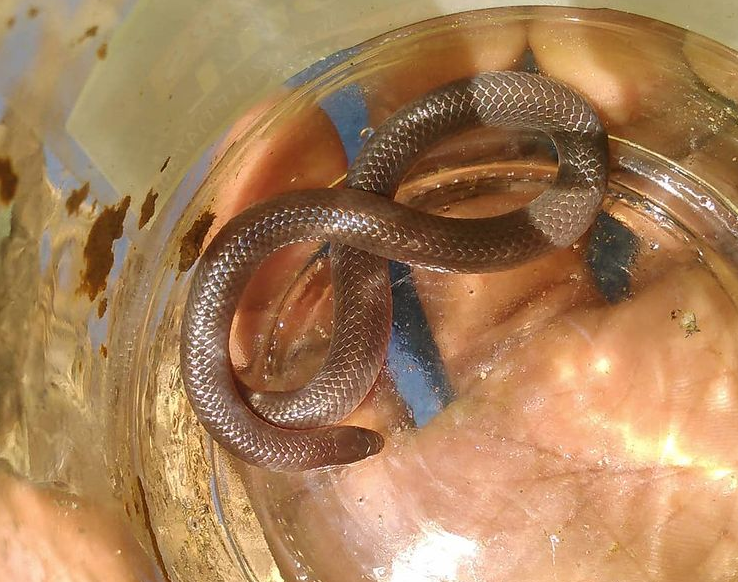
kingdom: Animalia
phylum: Chordata
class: Squamata
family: Colubridae
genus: Carphophis
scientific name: Carphophis amoenus
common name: Eastern worm snake
